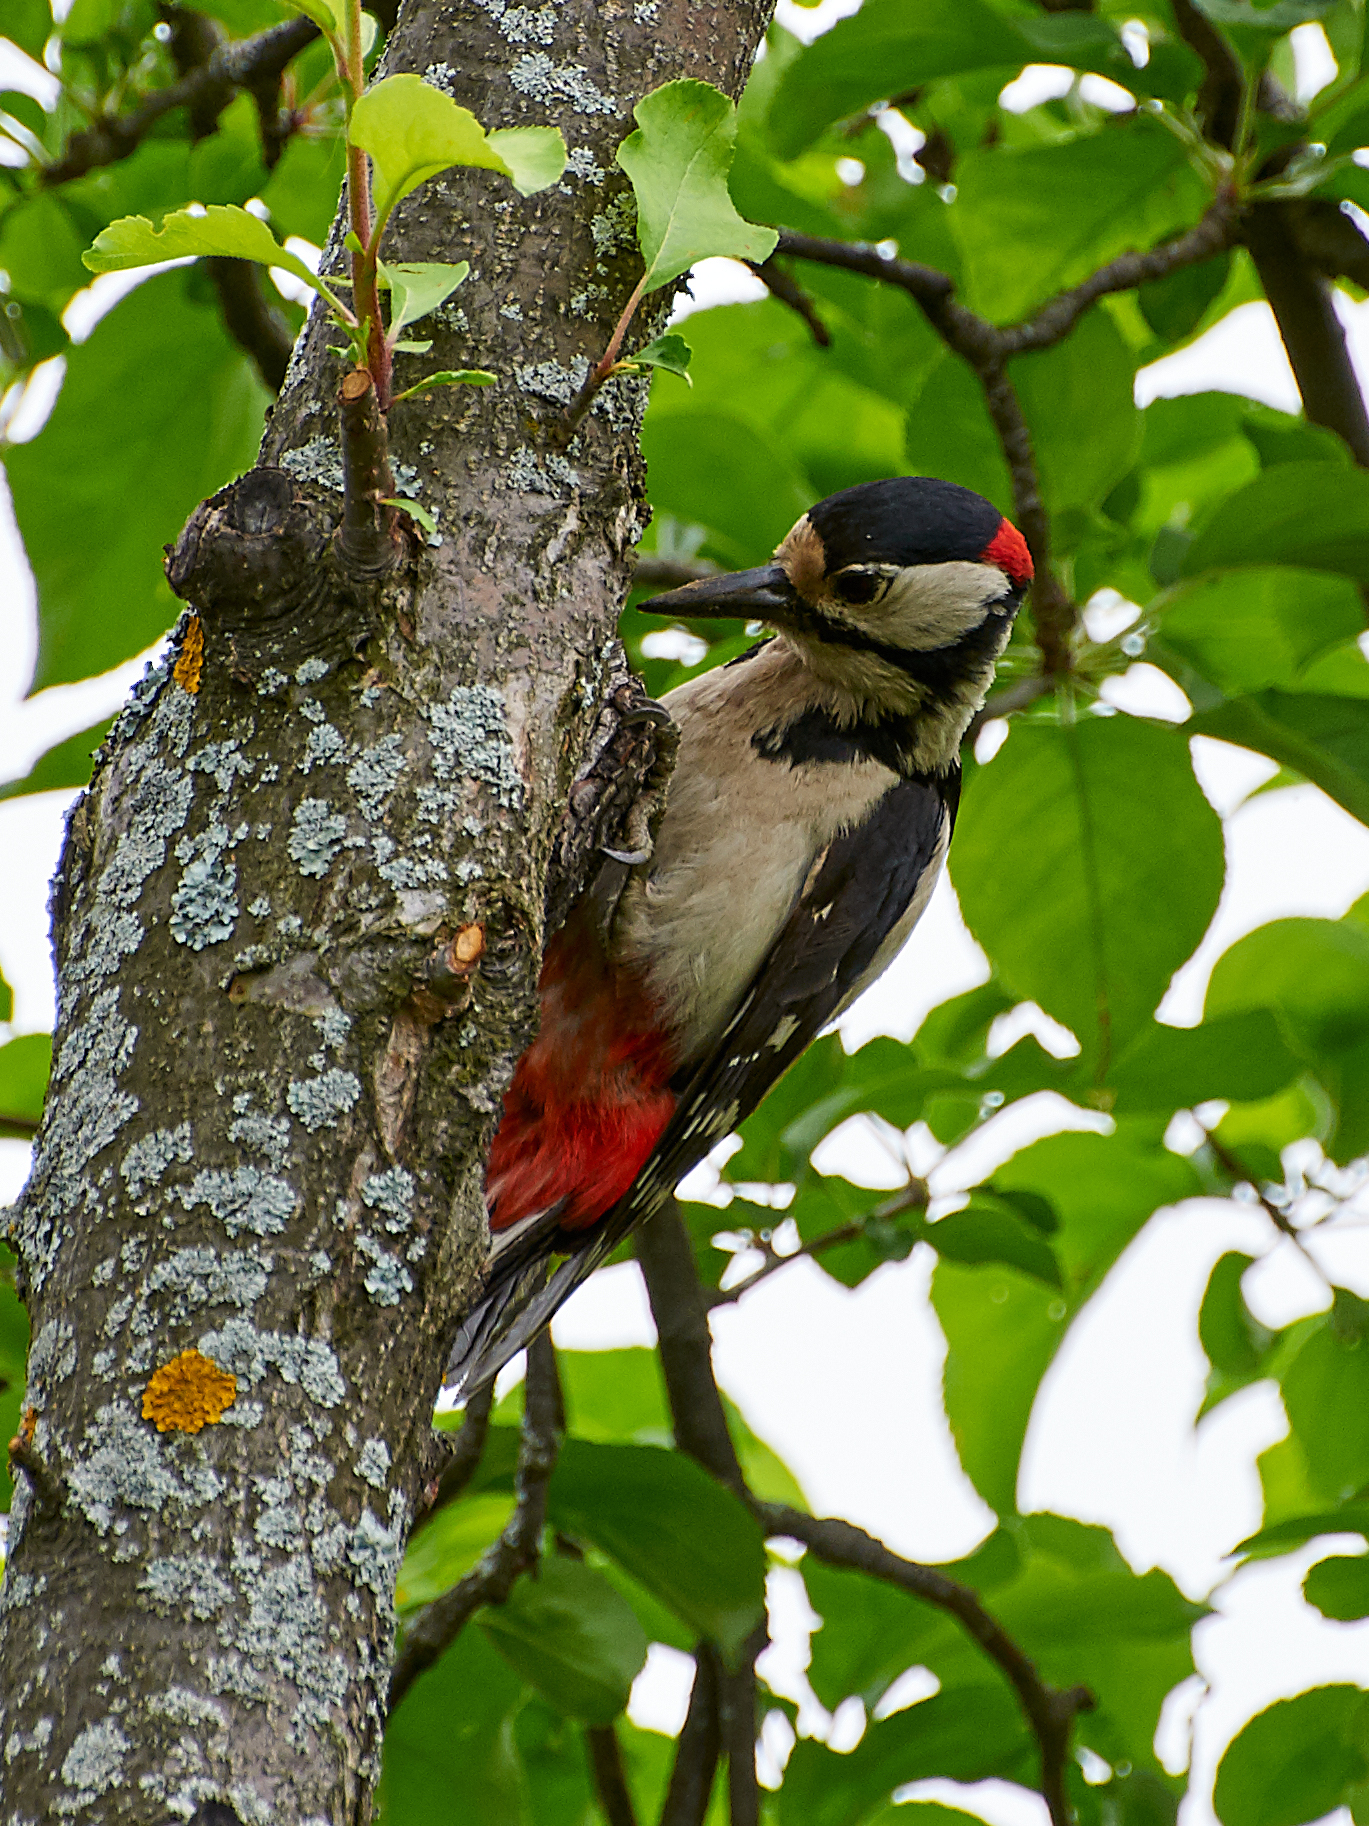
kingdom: Animalia
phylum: Chordata
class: Aves
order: Piciformes
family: Picidae
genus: Dendrocopos
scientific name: Dendrocopos major
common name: Great spotted woodpecker
